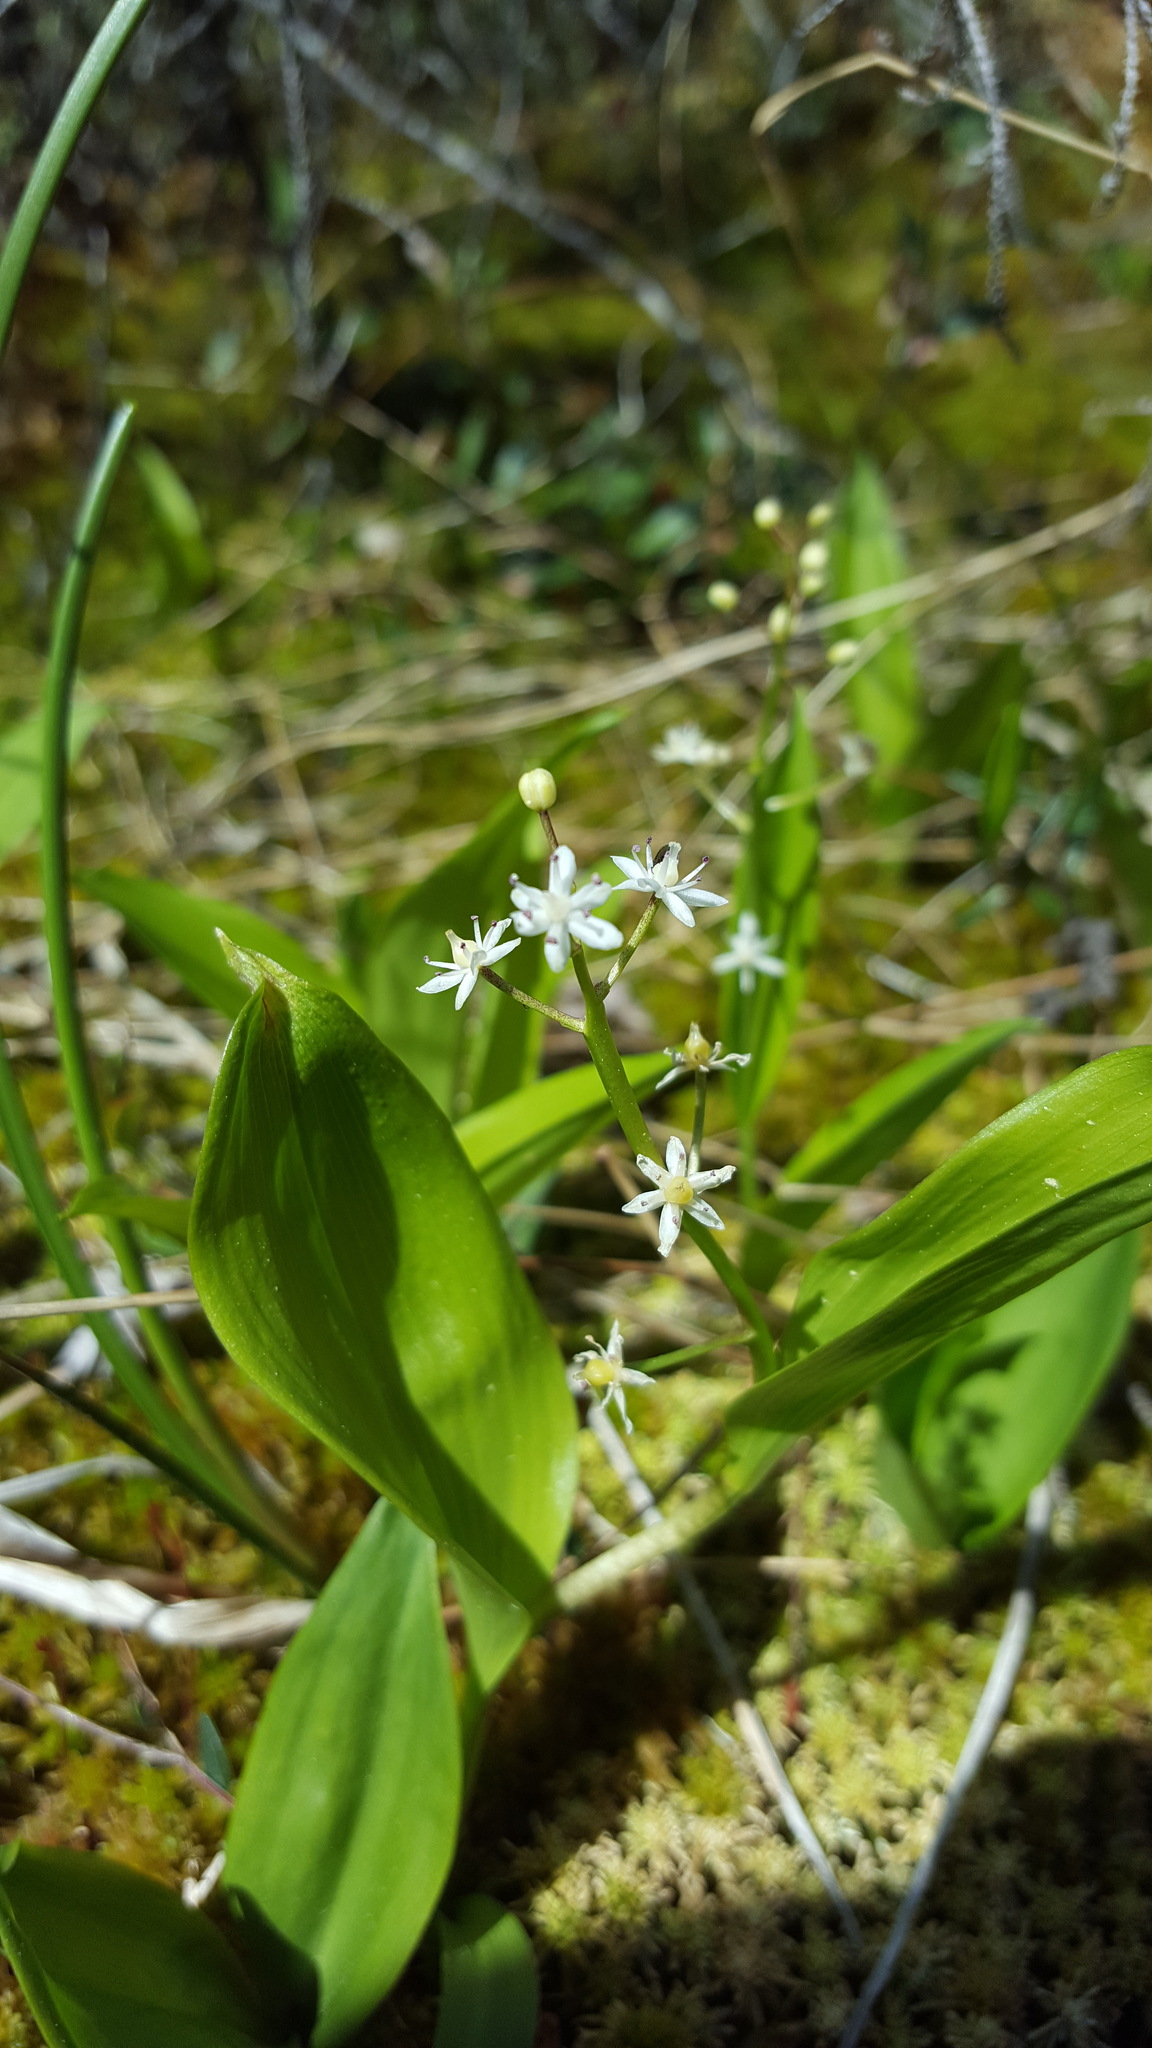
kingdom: Plantae
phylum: Tracheophyta
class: Liliopsida
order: Asparagales
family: Asparagaceae
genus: Maianthemum
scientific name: Maianthemum trifolium
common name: Swamp false solomon's seal
